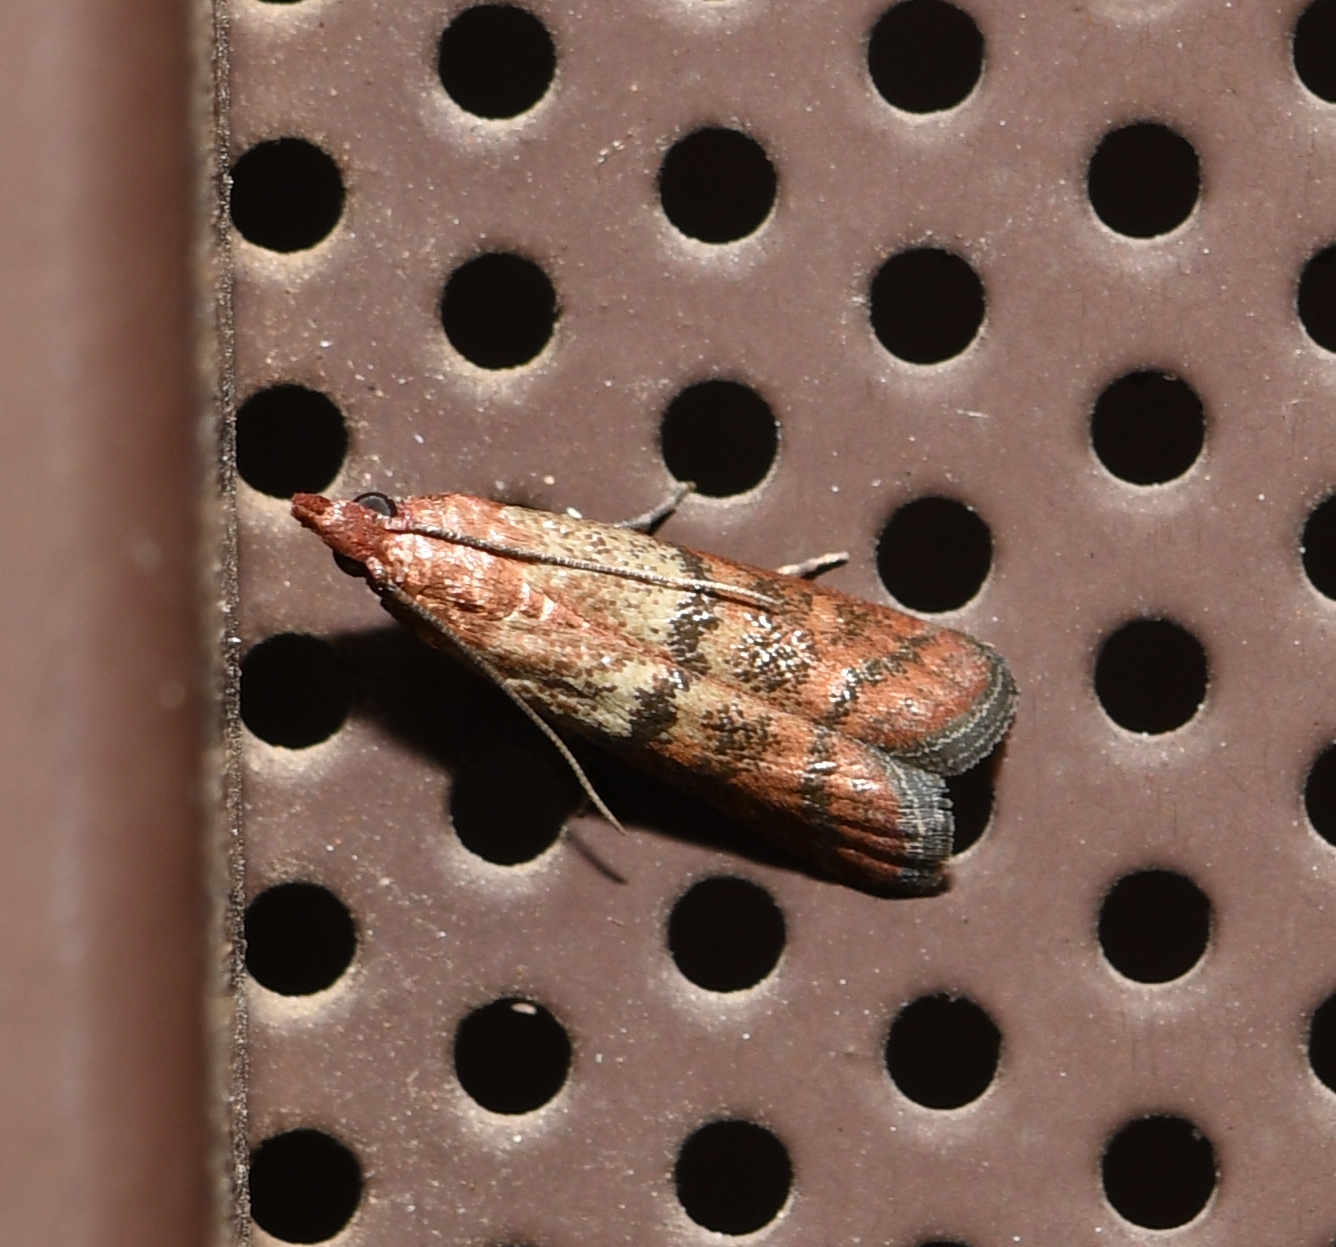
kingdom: Animalia
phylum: Arthropoda
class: Insecta
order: Lepidoptera
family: Pyralidae
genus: Plodia
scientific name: Plodia interpunctella
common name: Indian meal moth
